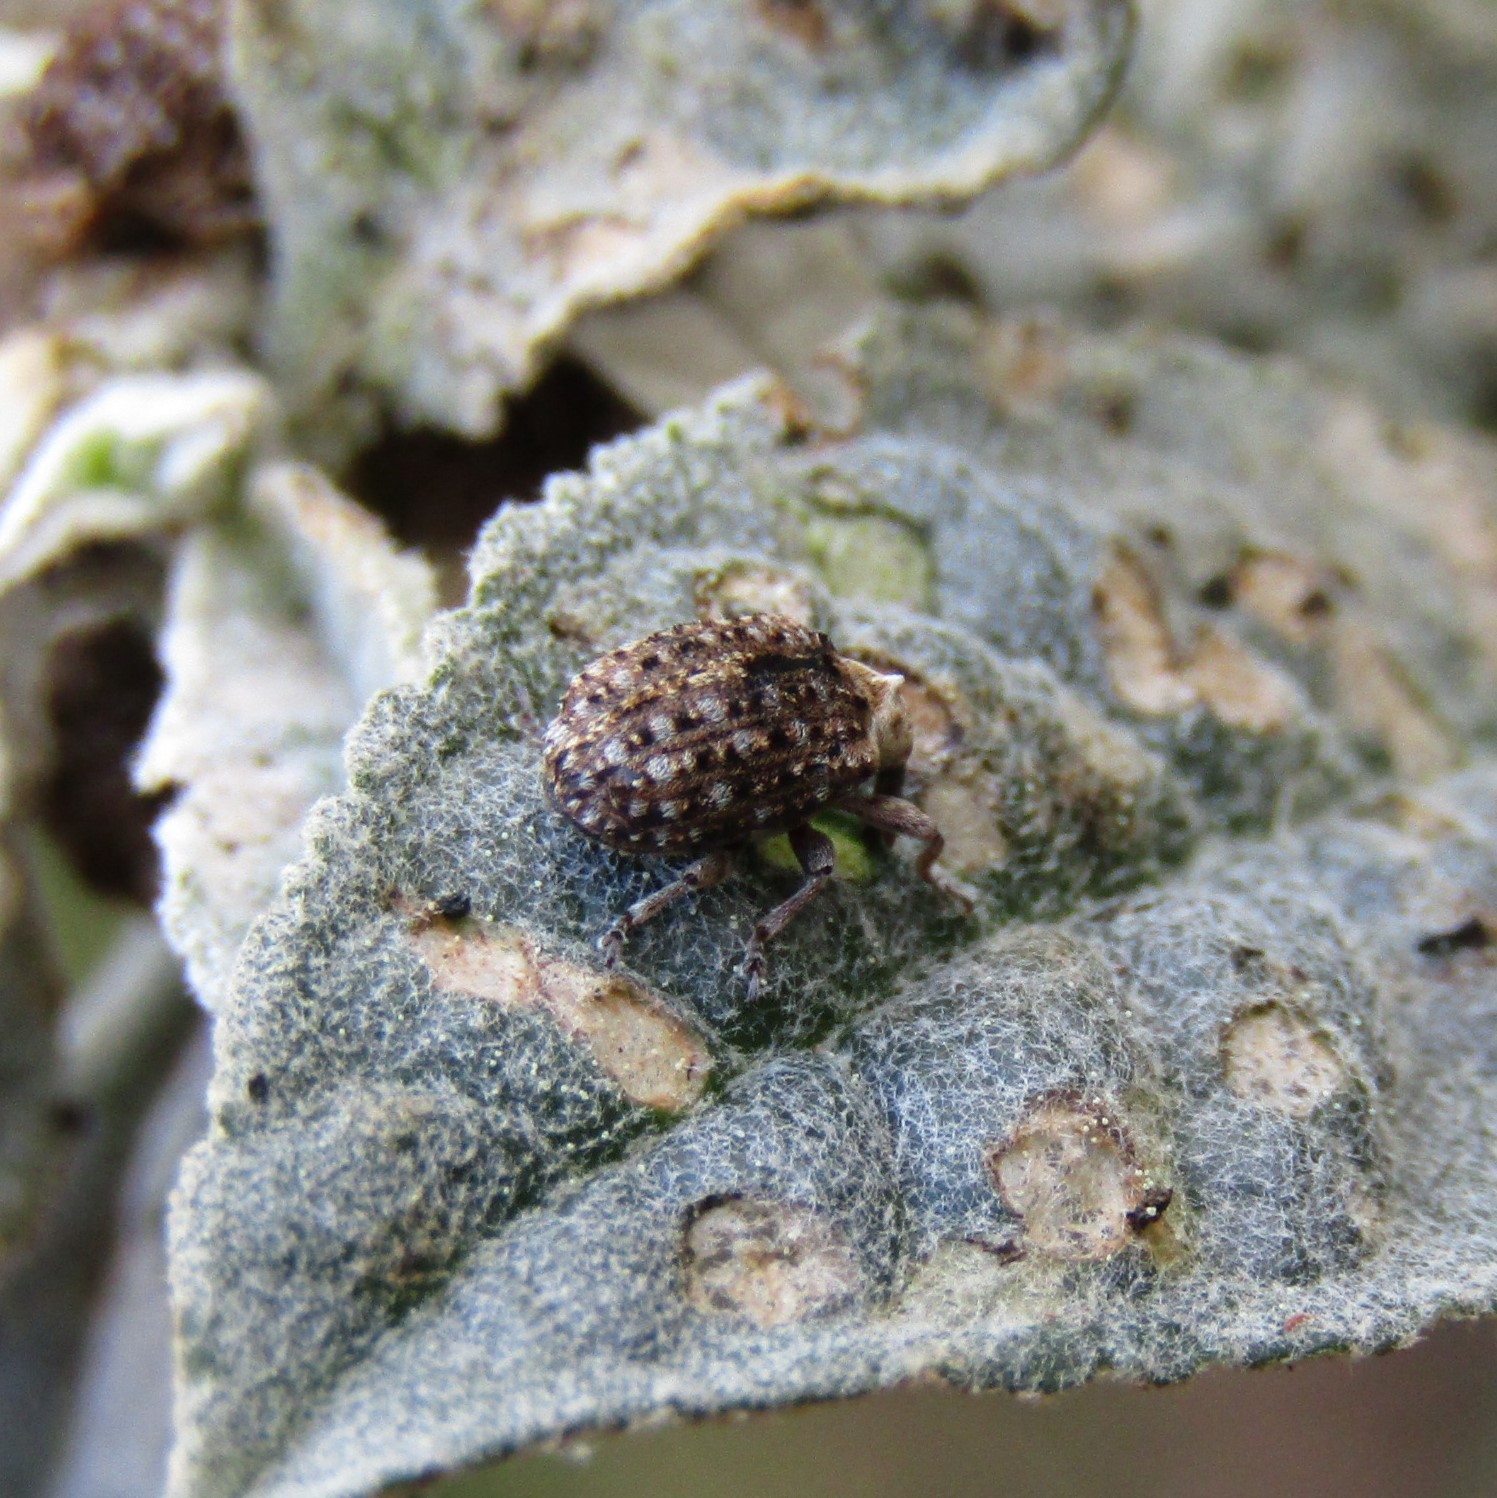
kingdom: Animalia
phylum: Arthropoda
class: Insecta
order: Coleoptera
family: Curculionidae
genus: Cleopus
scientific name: Cleopus japonicus
